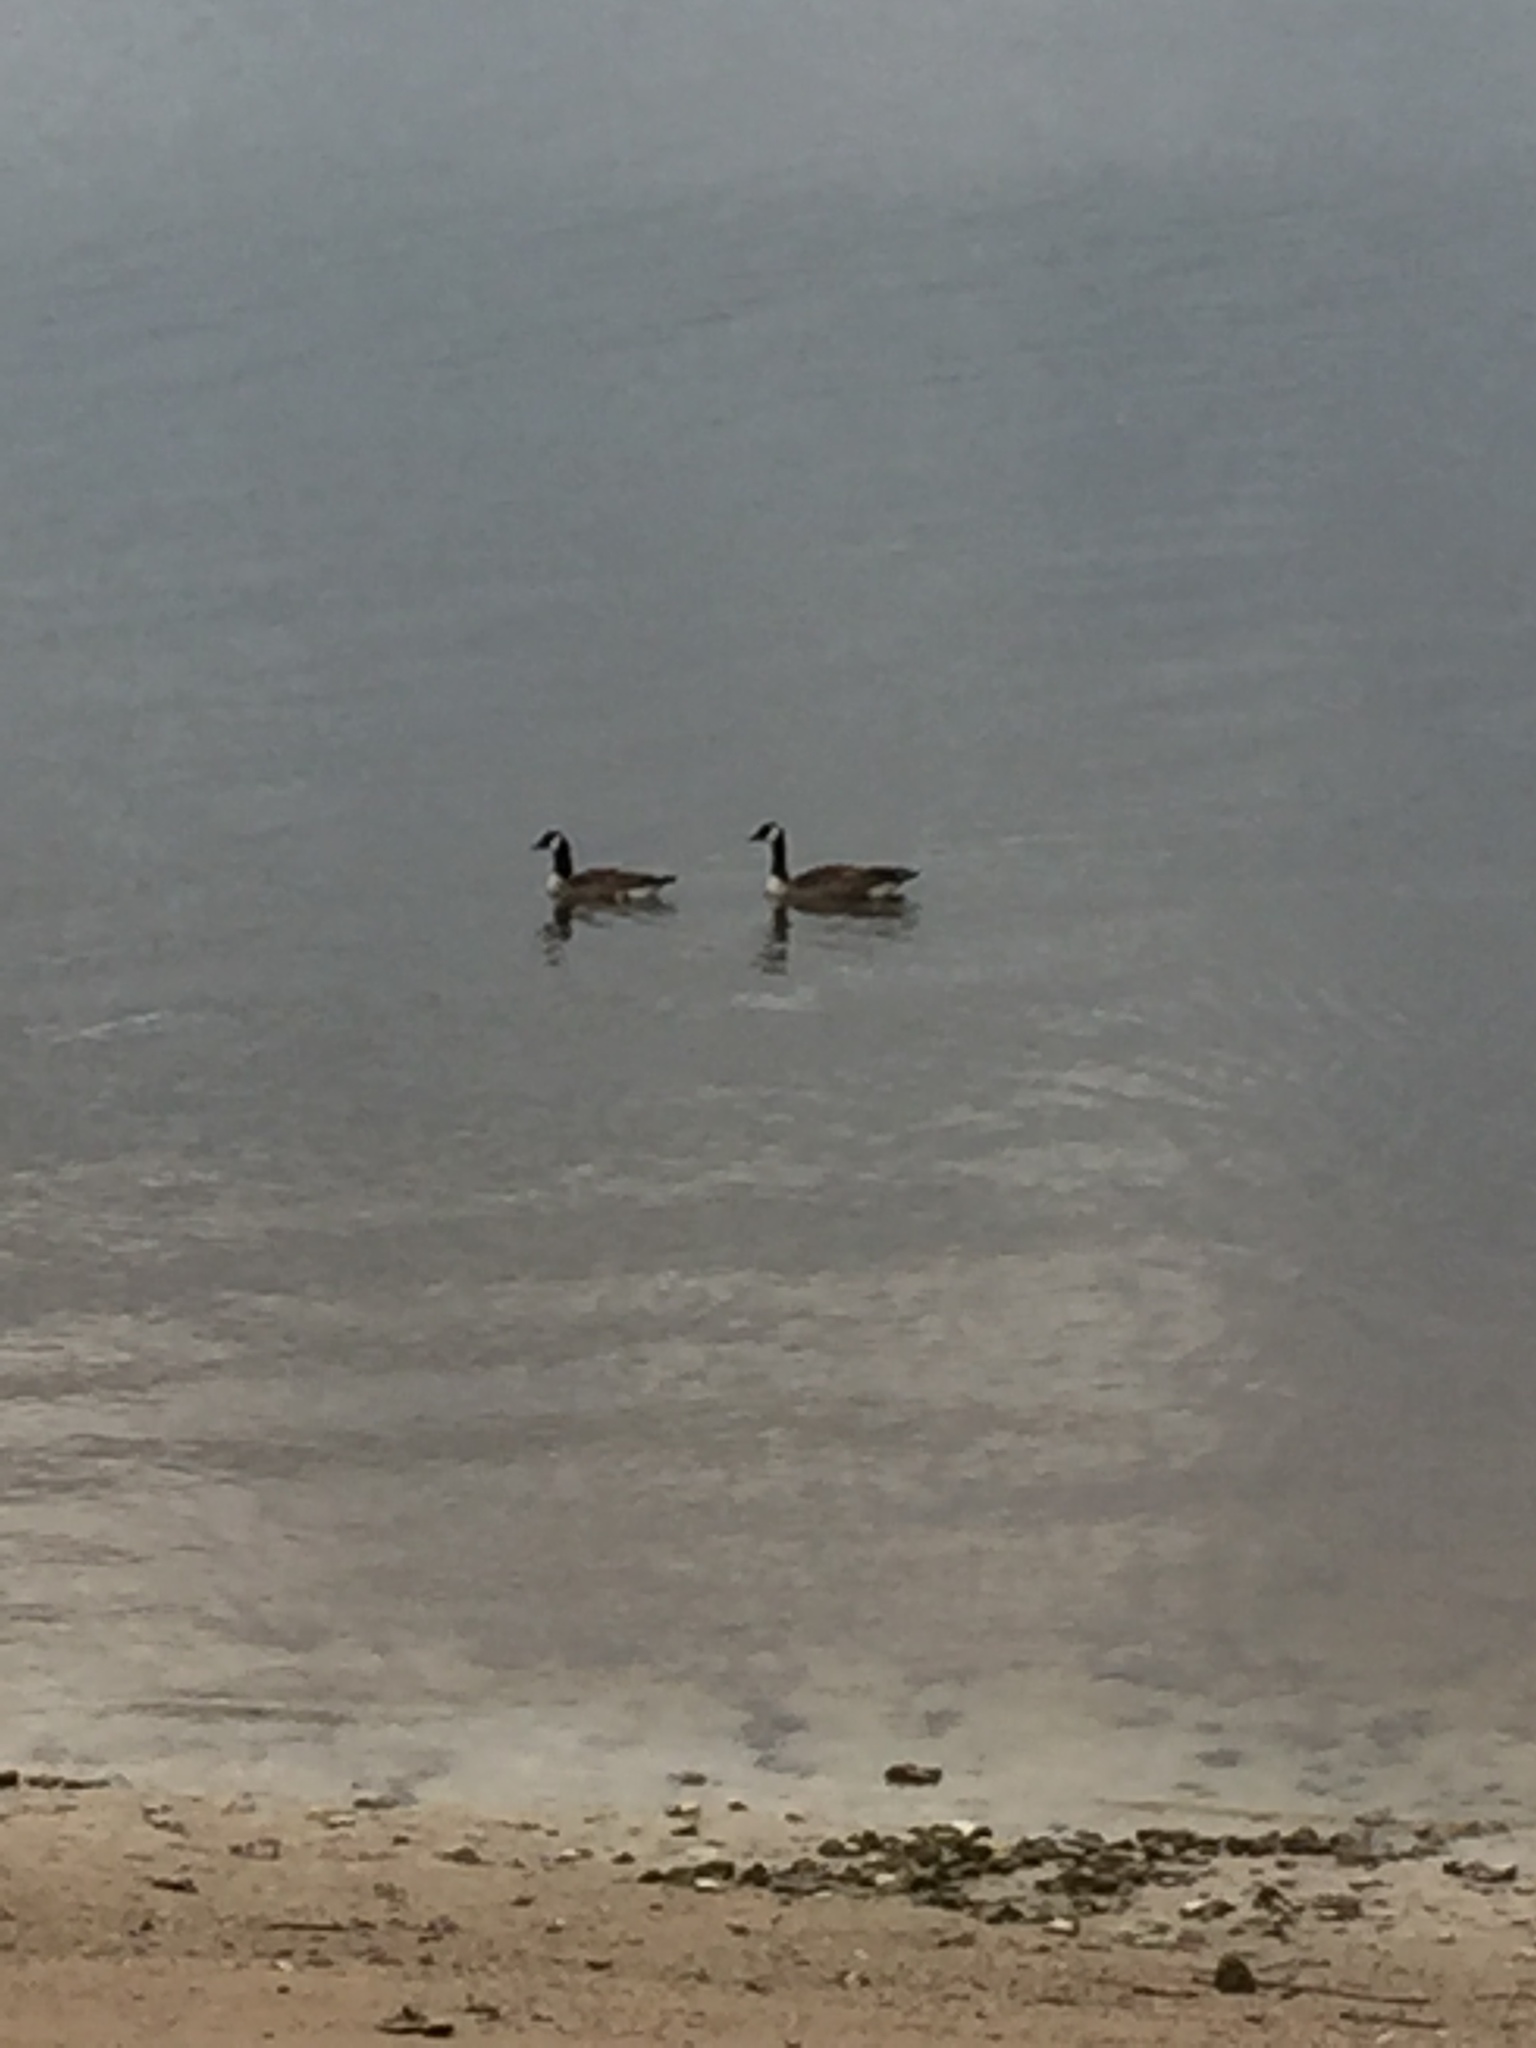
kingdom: Animalia
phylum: Chordata
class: Aves
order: Anseriformes
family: Anatidae
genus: Branta
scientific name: Branta canadensis
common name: Canada goose
